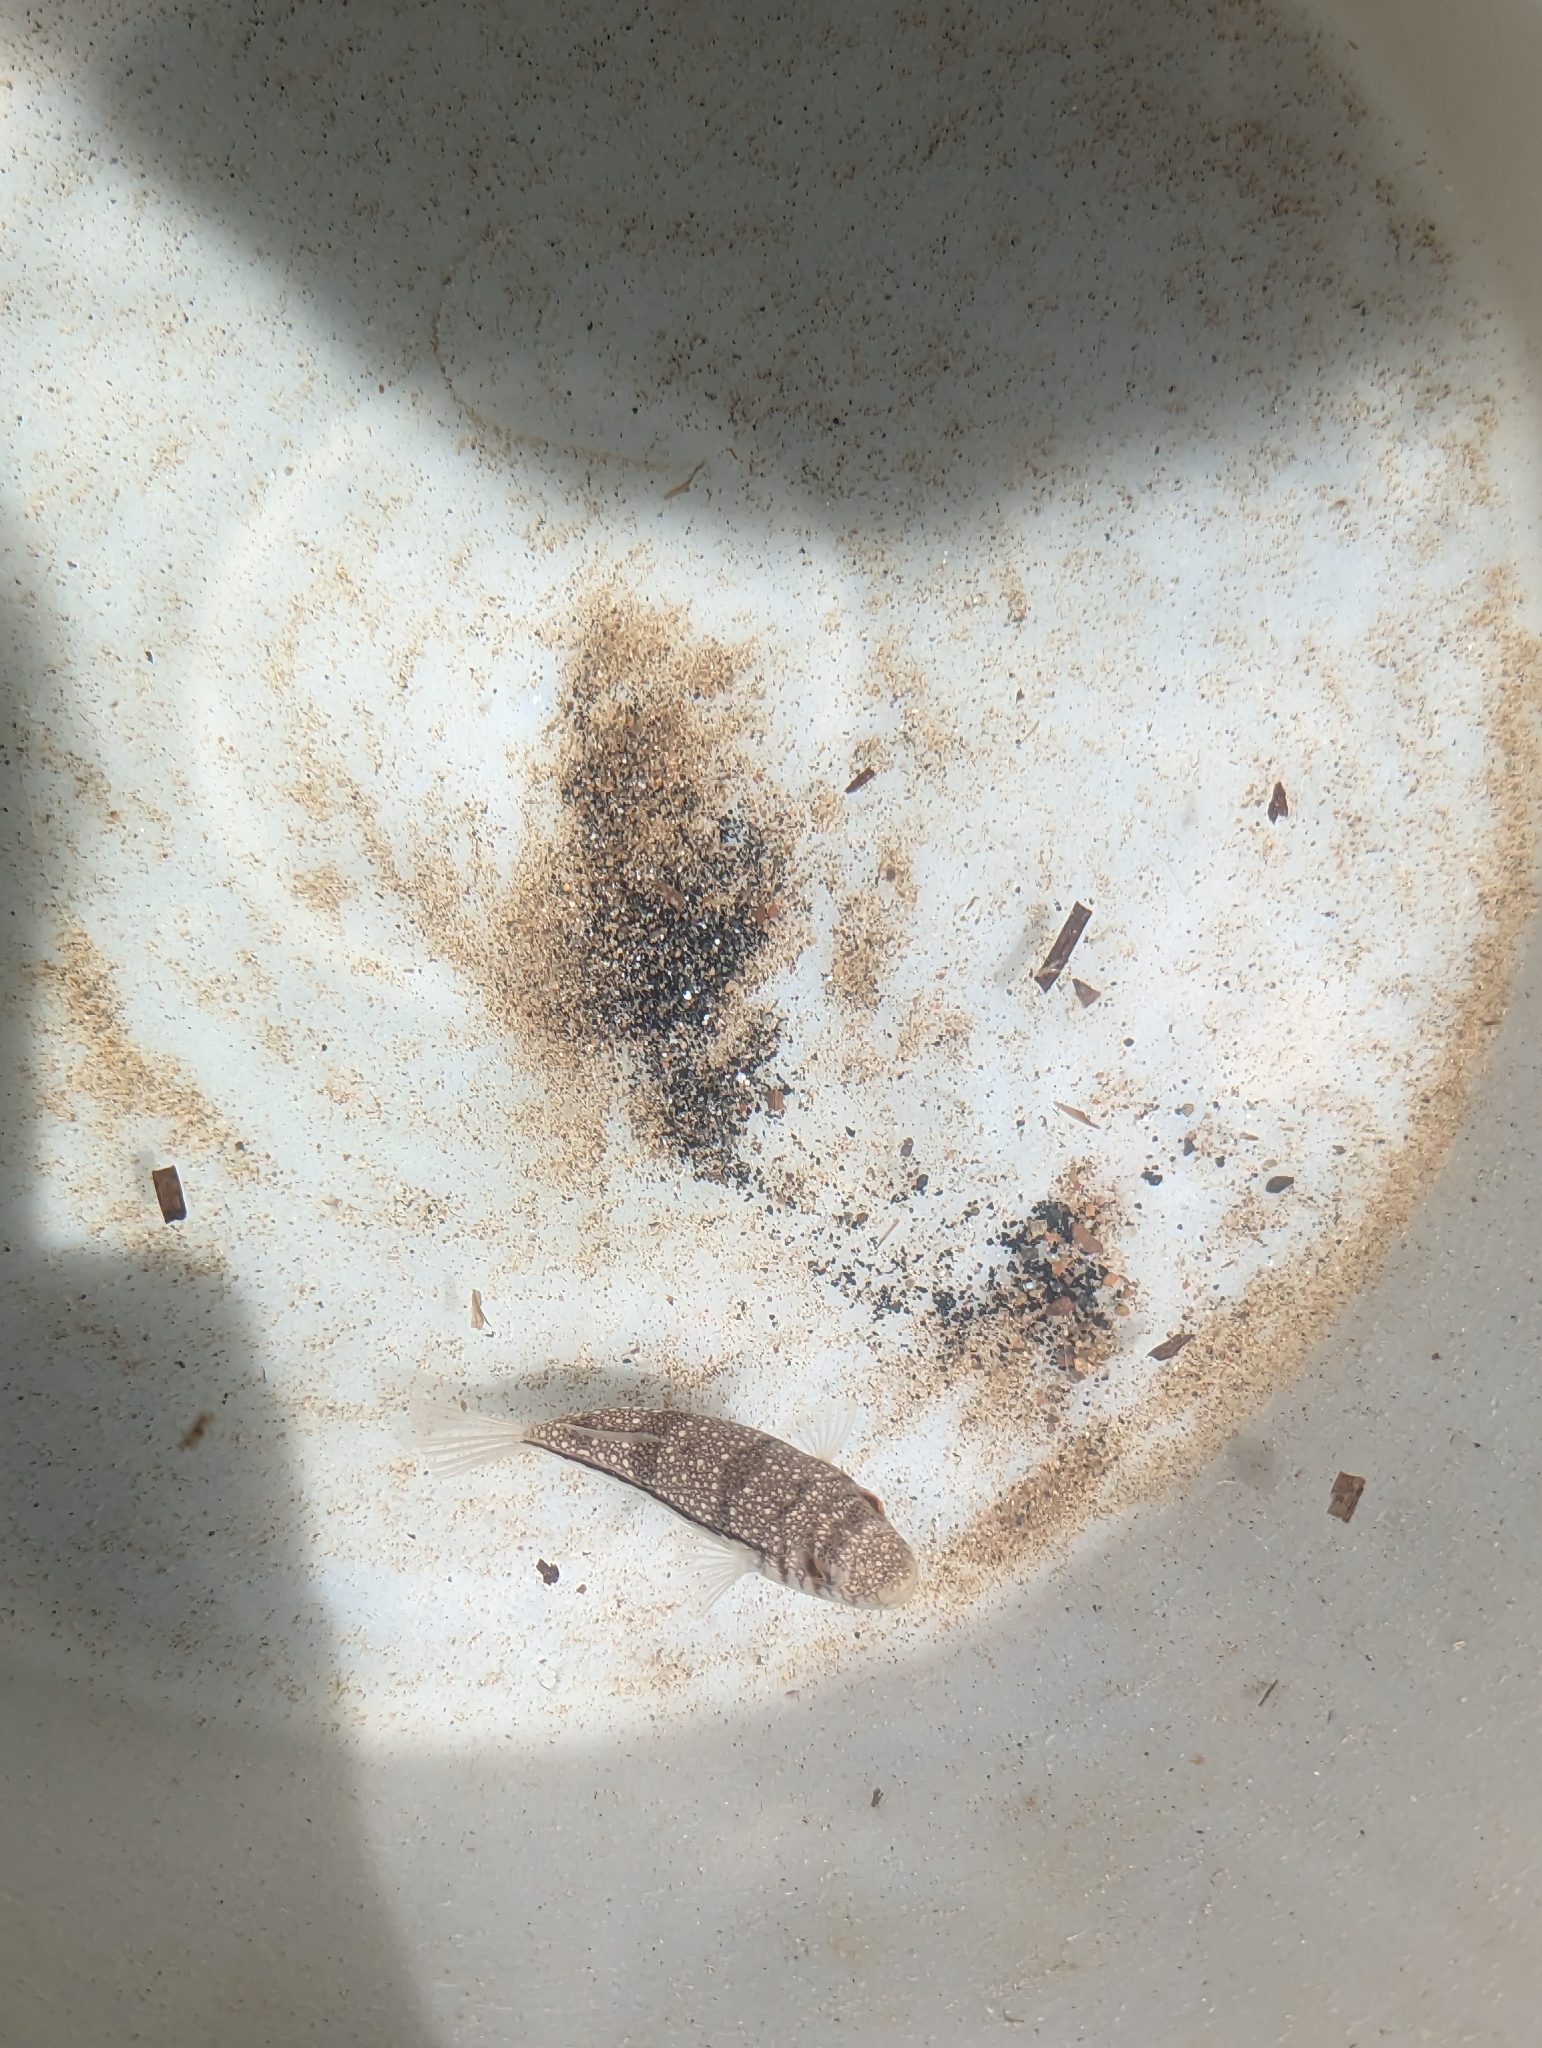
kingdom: Animalia
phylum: Chordata
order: Tetraodontiformes
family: Tetraodontidae
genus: Torquigener
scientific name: Torquigener pleurogramma
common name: Banded toadfish
